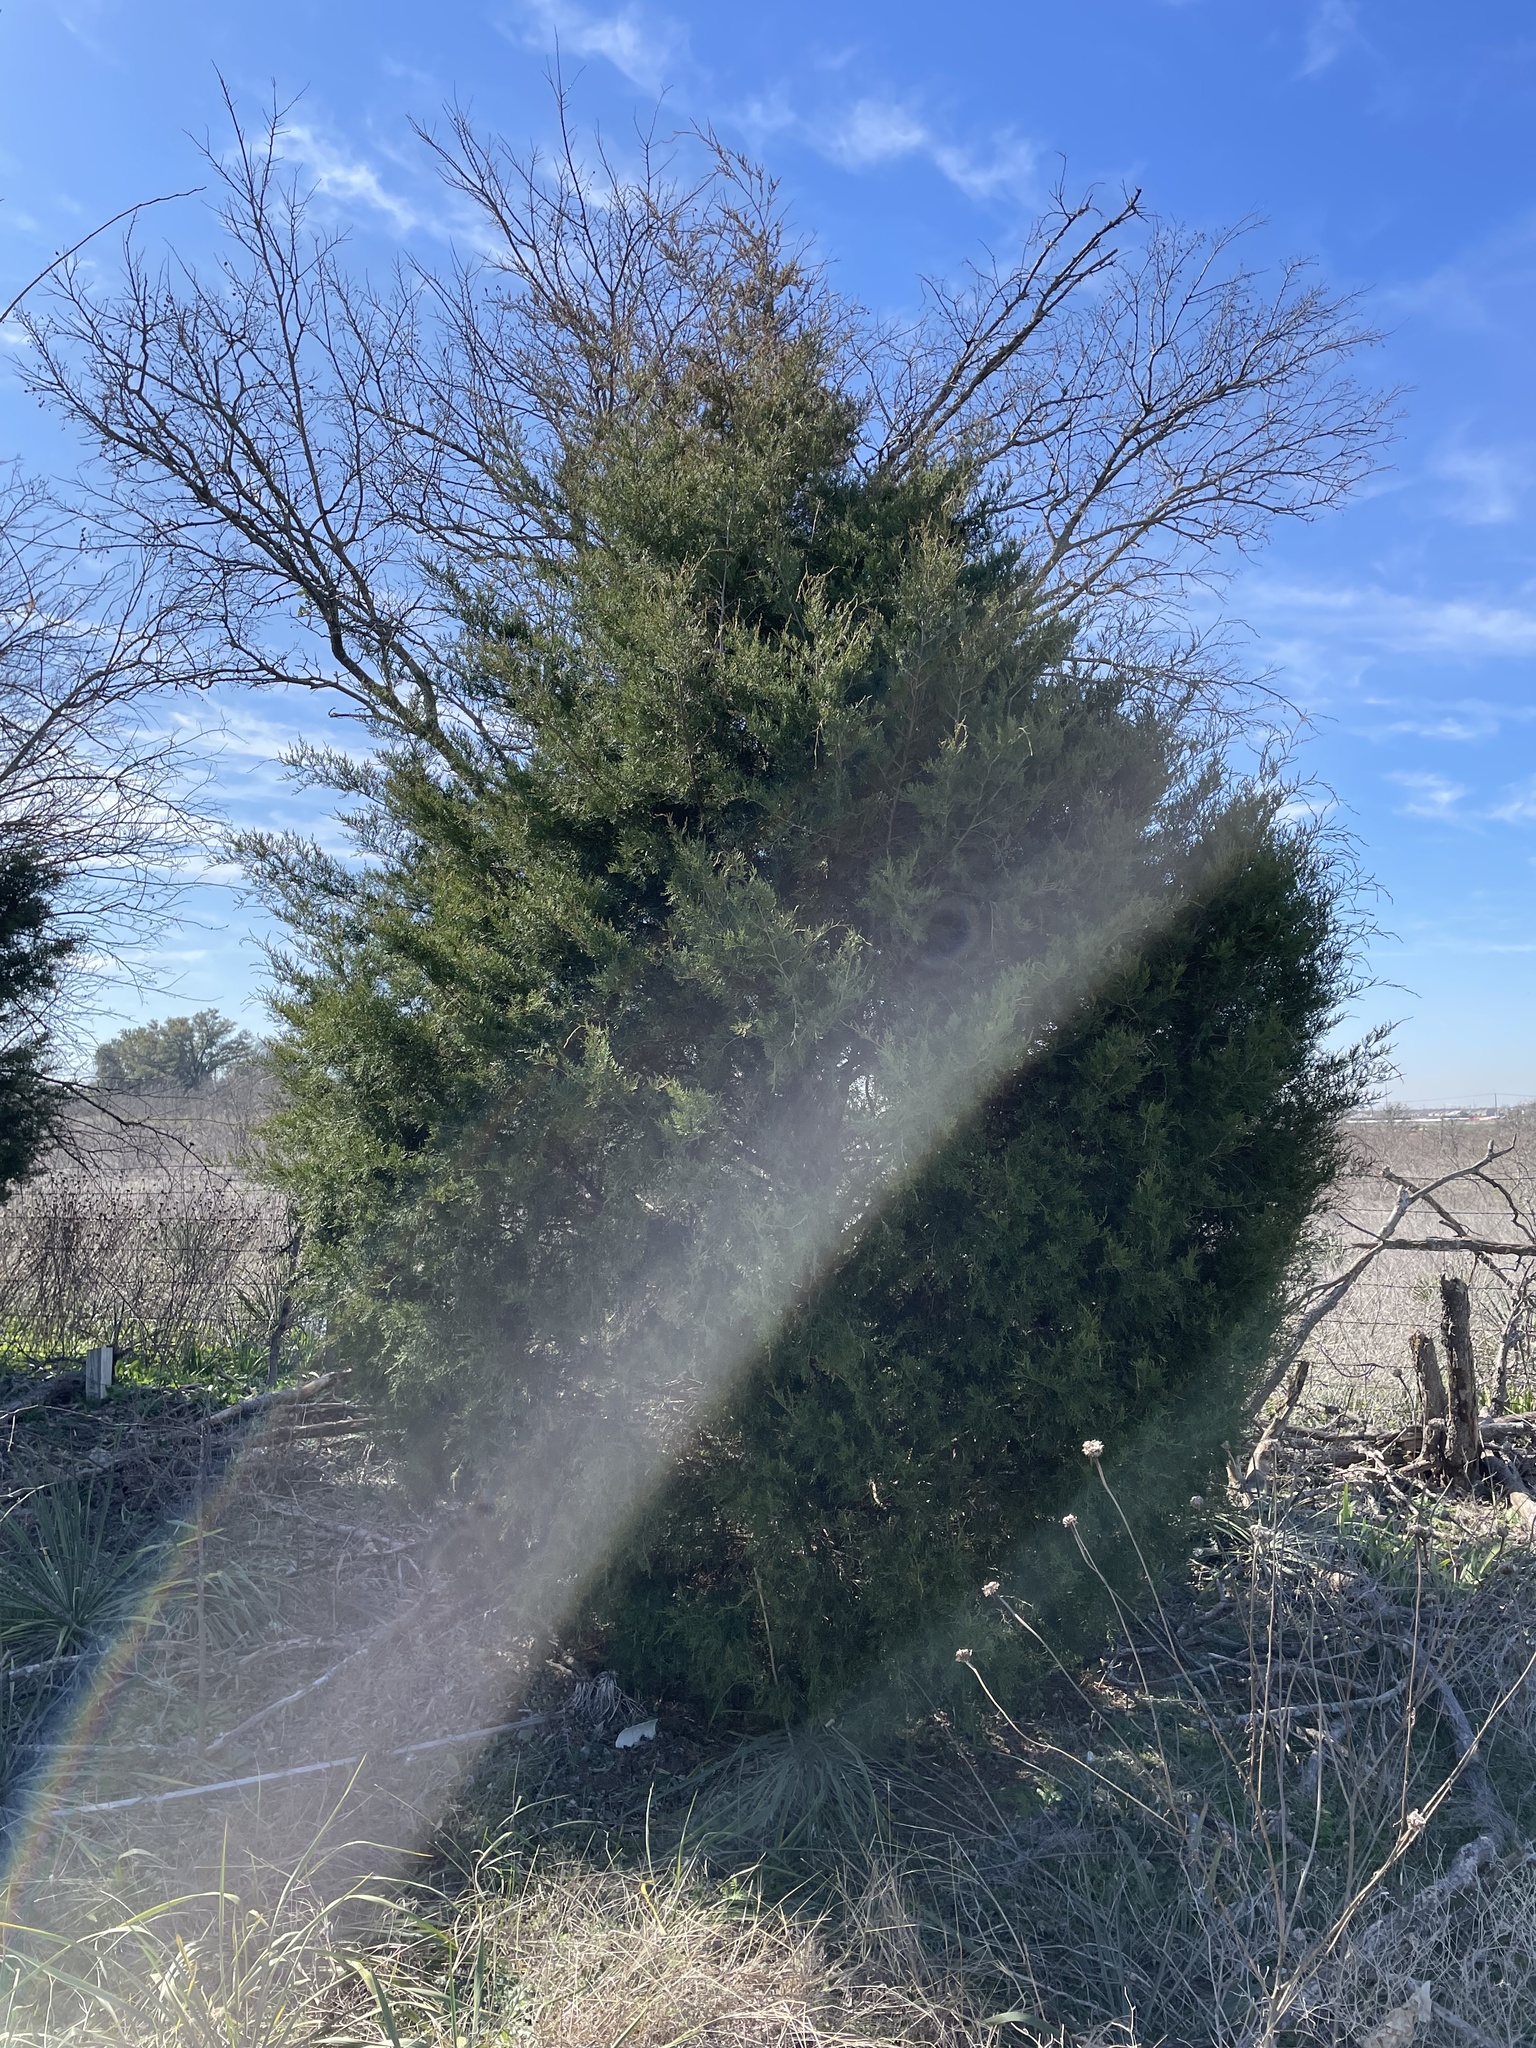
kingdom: Plantae
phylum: Tracheophyta
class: Pinopsida
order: Pinales
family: Cupressaceae
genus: Juniperus
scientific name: Juniperus virginiana
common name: Red juniper
